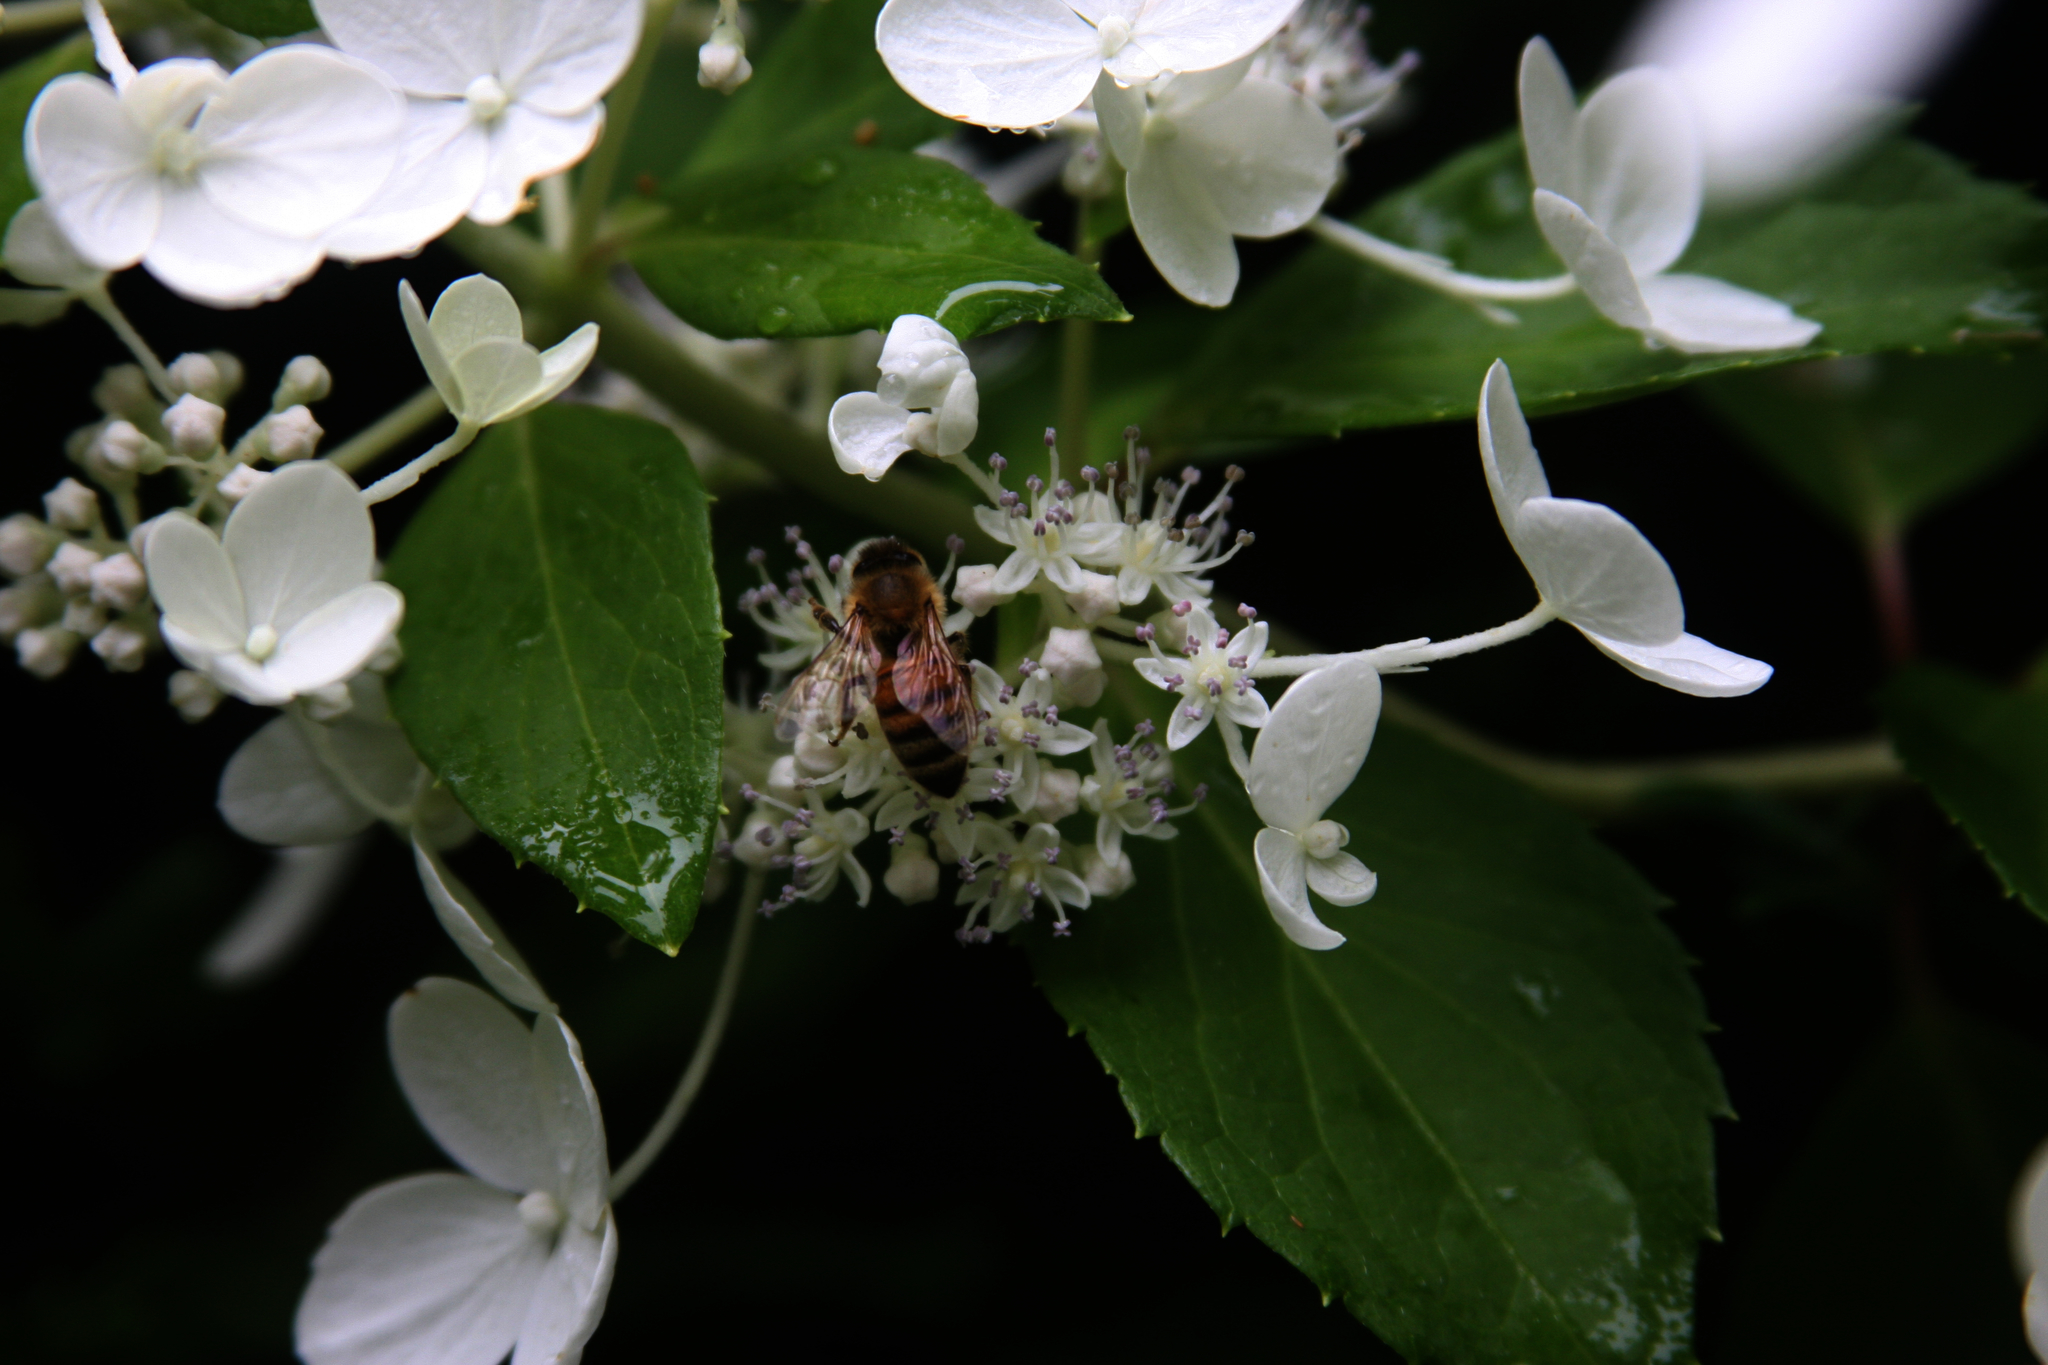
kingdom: Animalia
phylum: Arthropoda
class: Insecta
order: Hymenoptera
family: Apidae
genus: Apis
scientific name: Apis mellifera
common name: Honey bee
